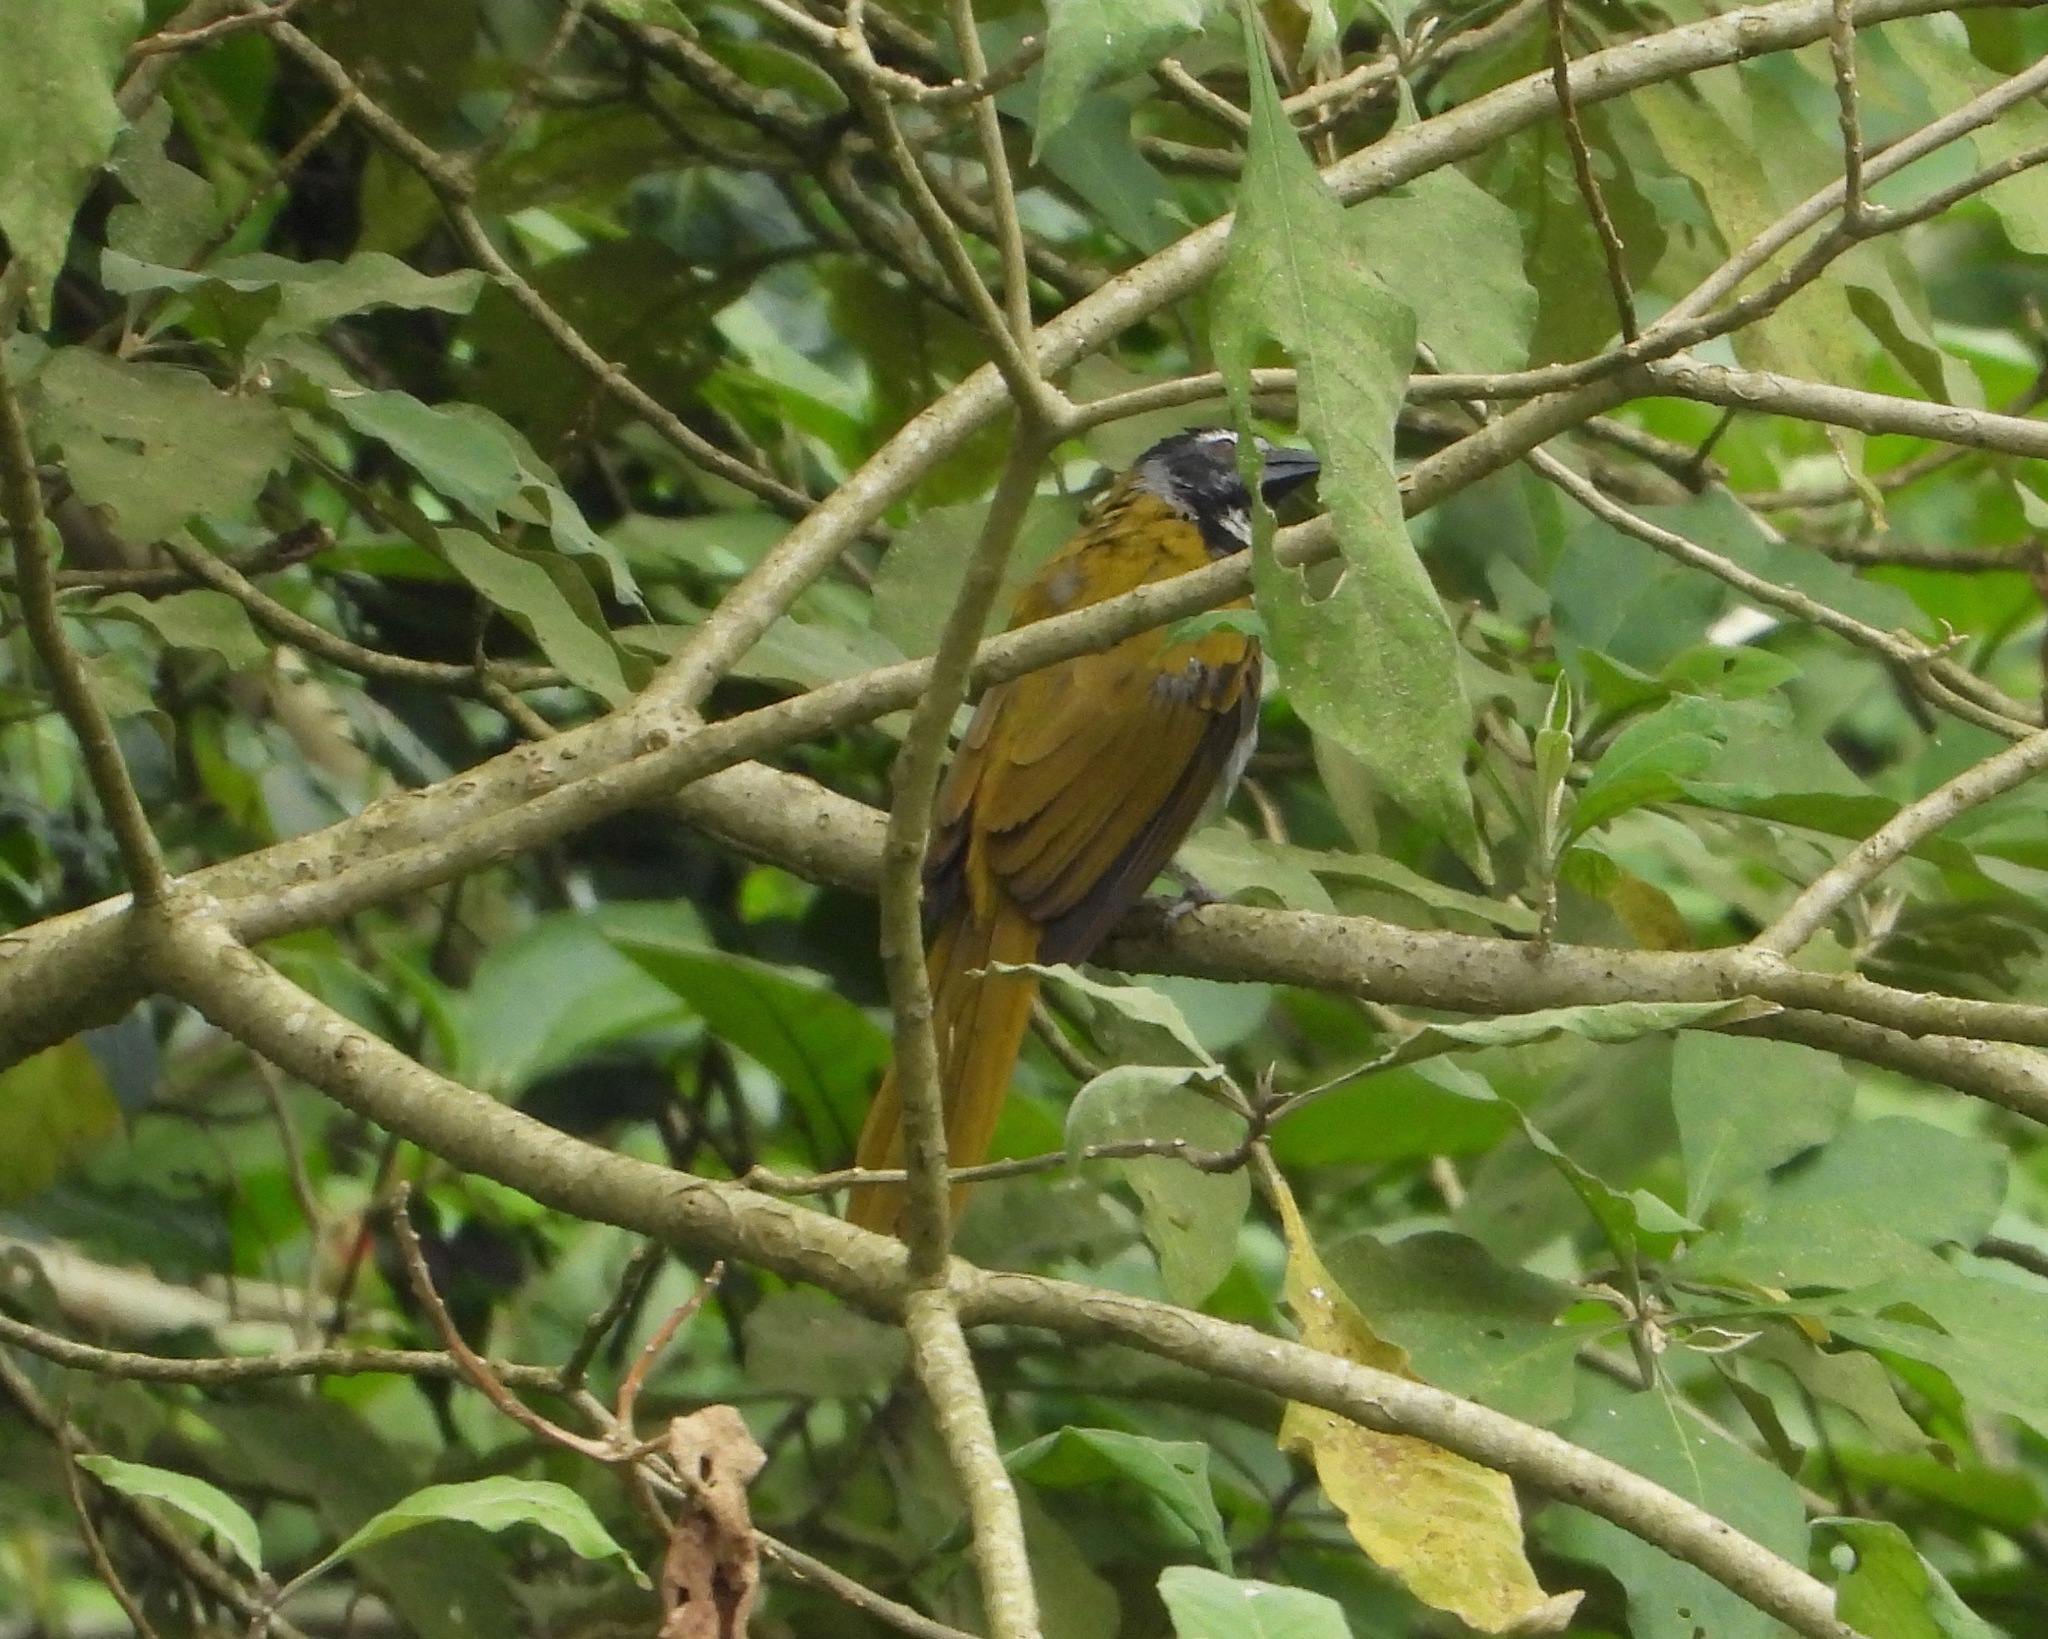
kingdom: Animalia
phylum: Chordata
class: Aves
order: Passeriformes
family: Thraupidae
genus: Saltator
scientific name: Saltator atriceps
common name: Black-headed saltator
